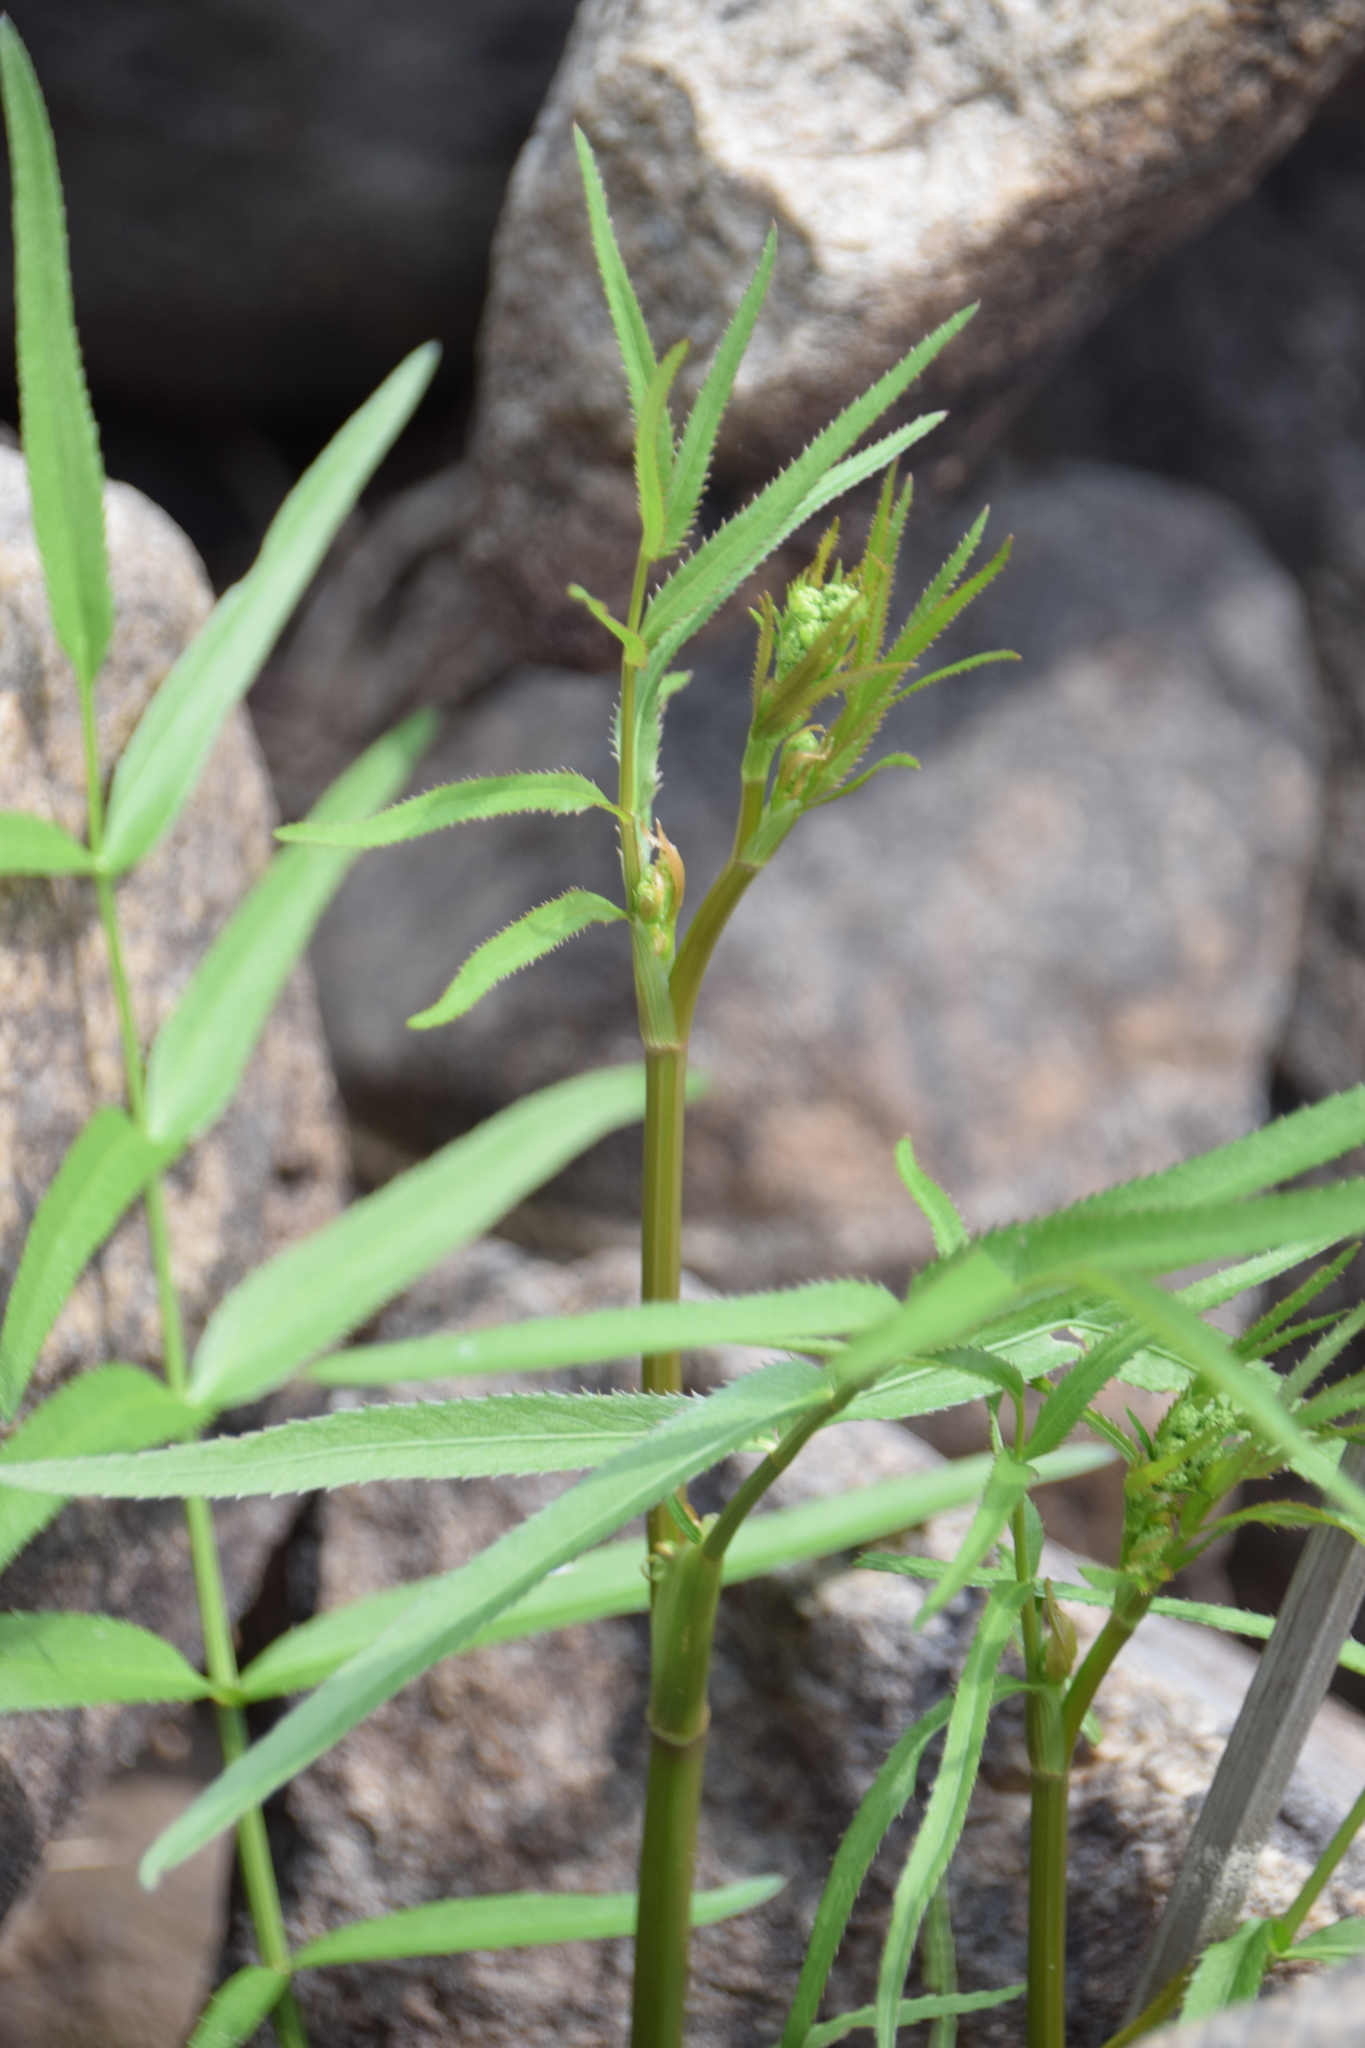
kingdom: Plantae
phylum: Tracheophyta
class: Magnoliopsida
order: Apiales
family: Apiaceae
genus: Sium
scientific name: Sium suave
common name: Hemlock water-parsnip
